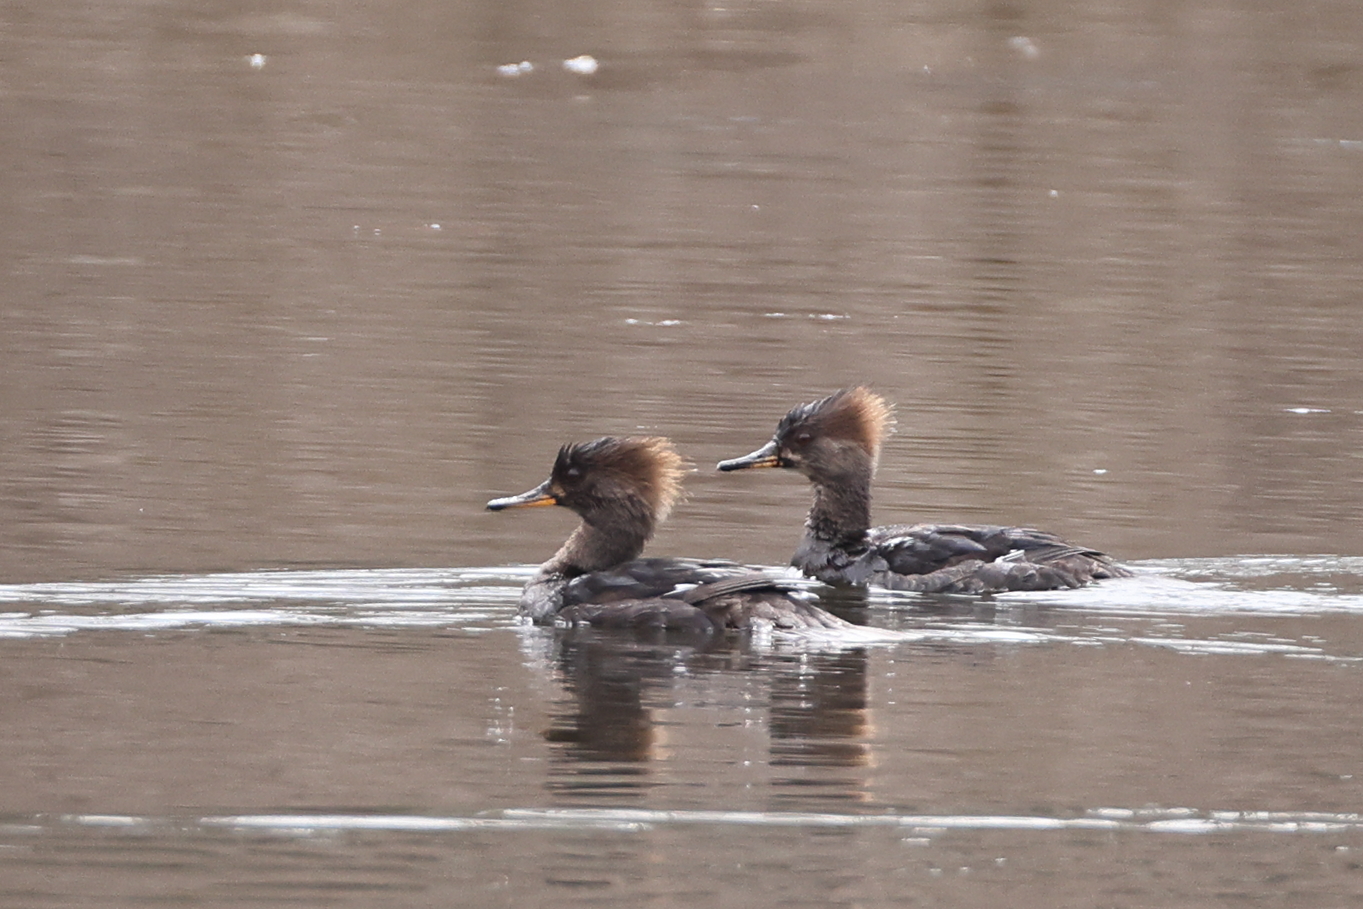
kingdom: Animalia
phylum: Chordata
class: Aves
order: Anseriformes
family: Anatidae
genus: Lophodytes
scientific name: Lophodytes cucullatus
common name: Hooded merganser
